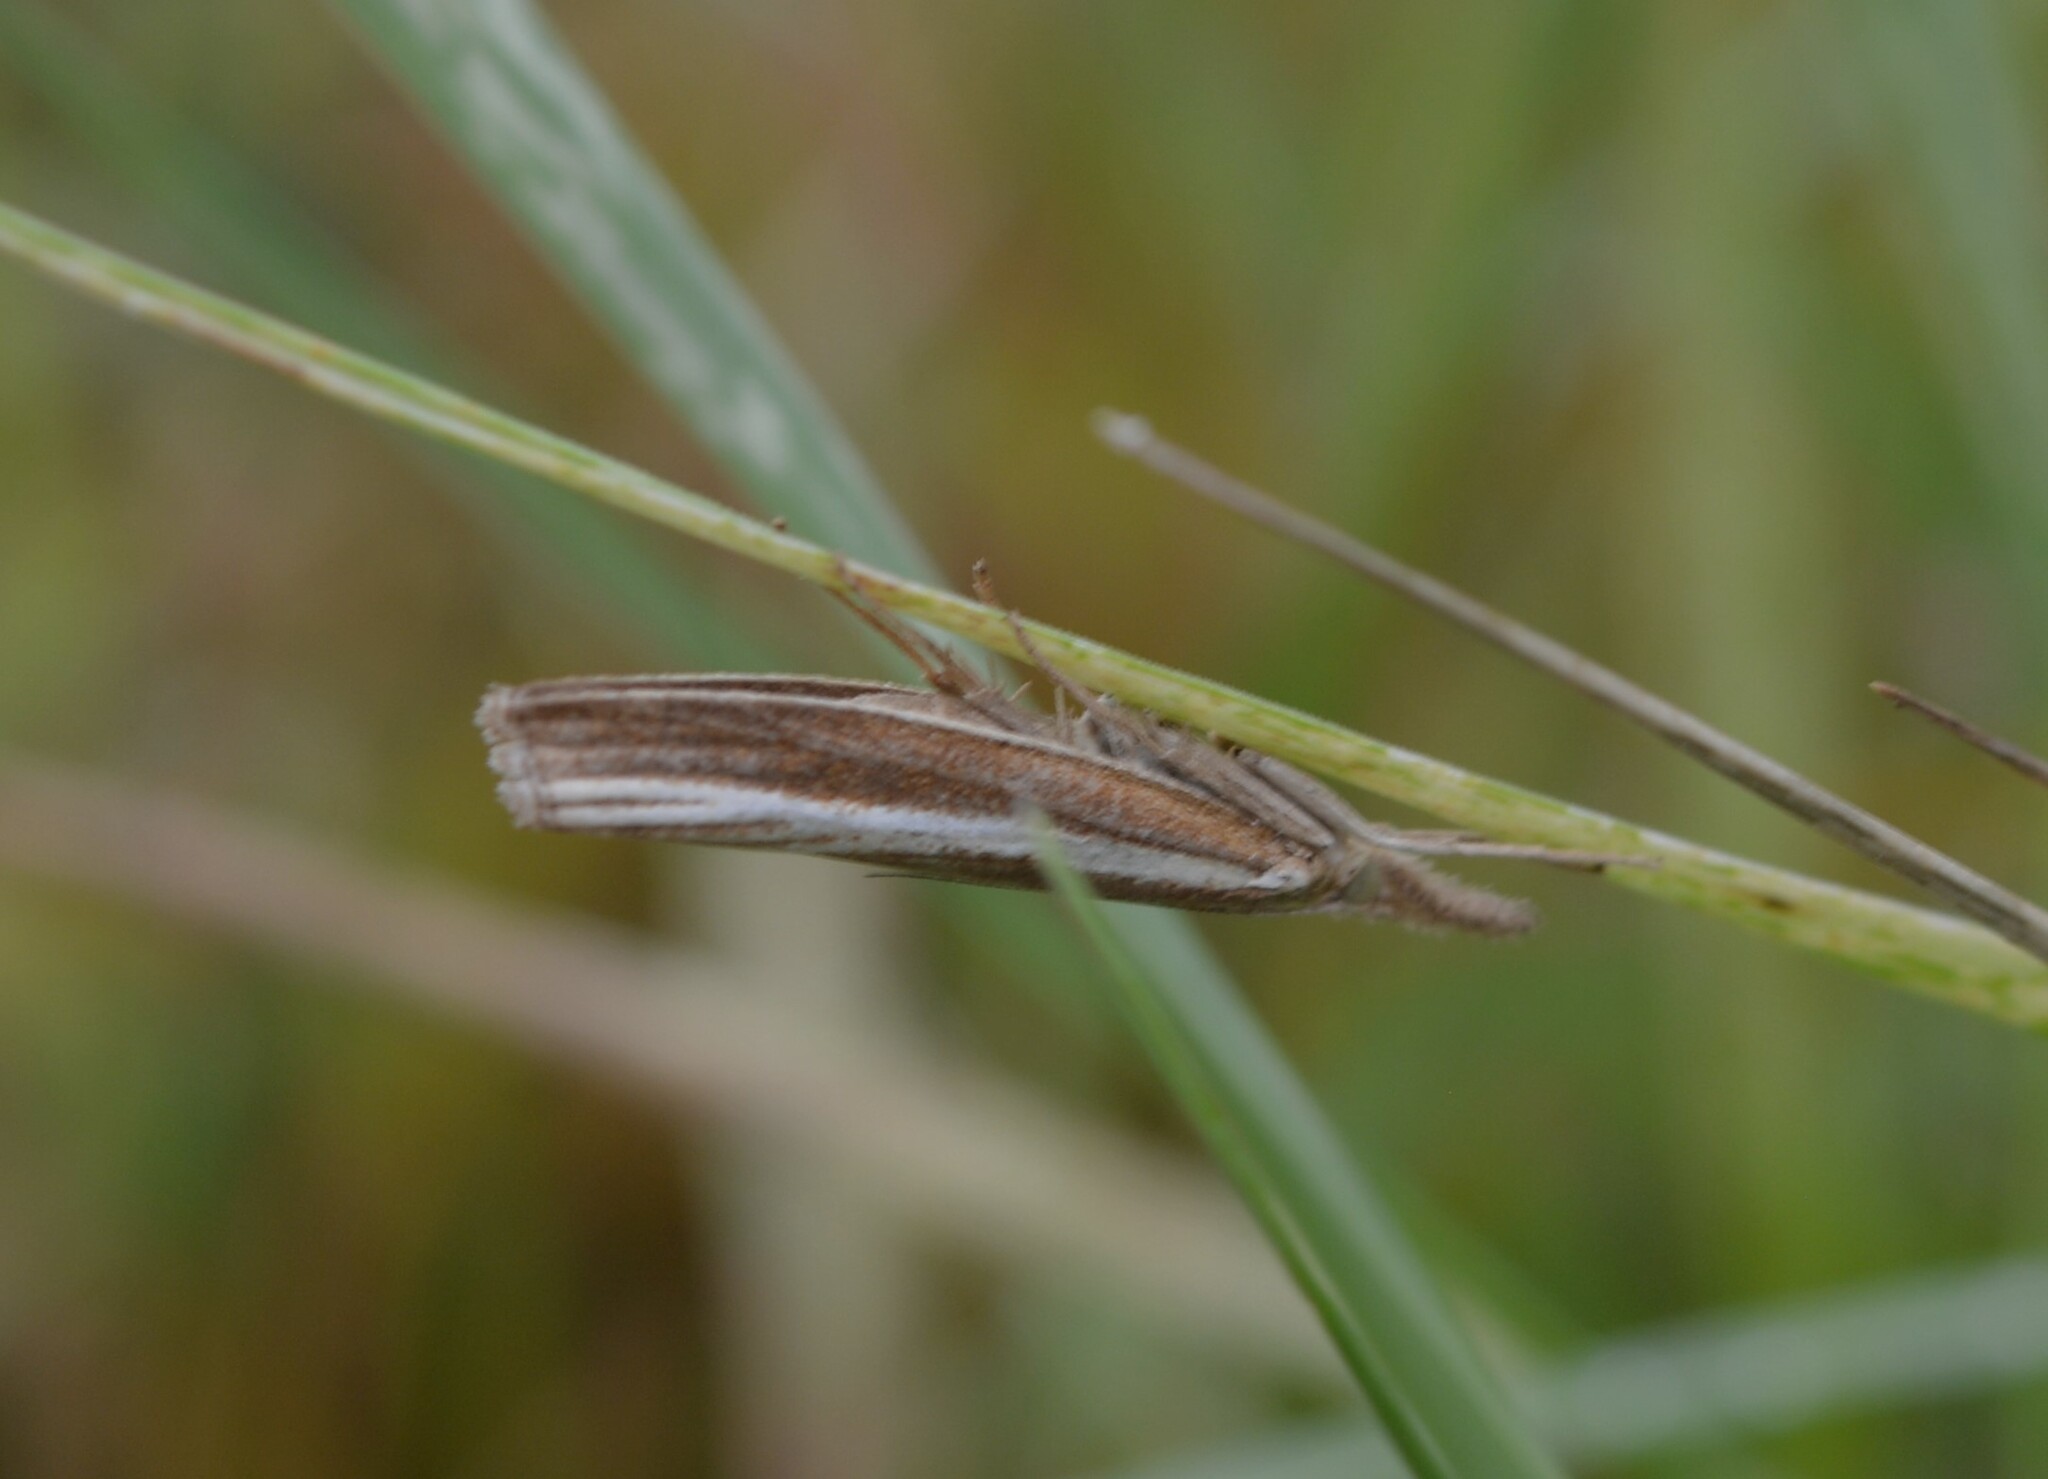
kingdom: Animalia
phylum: Arthropoda
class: Insecta
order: Lepidoptera
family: Crambidae
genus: Agriphila
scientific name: Agriphila tristellus
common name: Common grass-veneer
